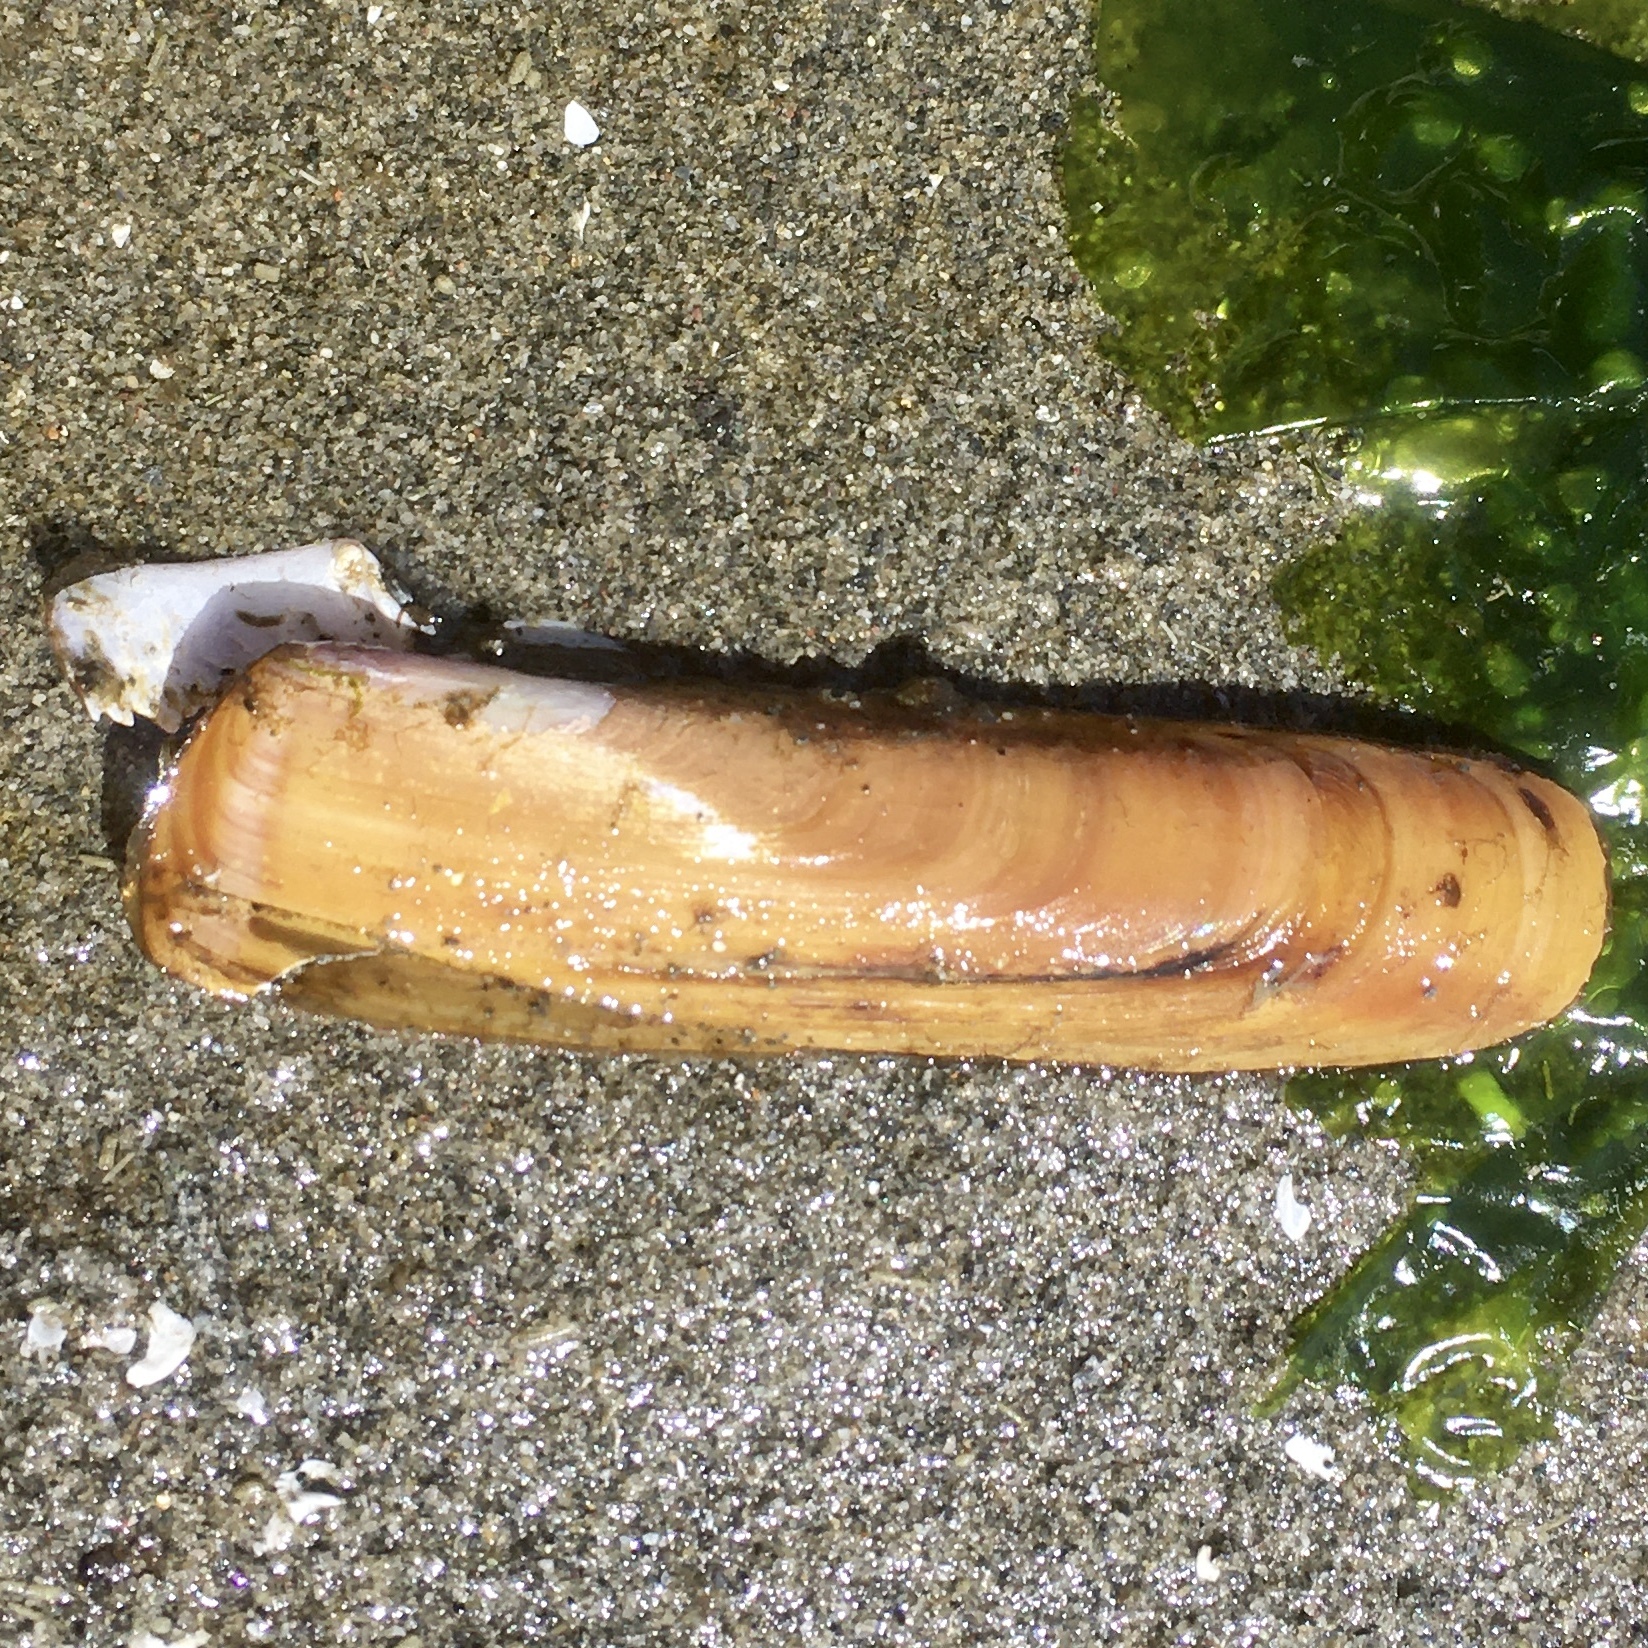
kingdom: Animalia
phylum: Mollusca
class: Bivalvia
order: Adapedonta
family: Solenidae
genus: Solen
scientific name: Solen sicarius
